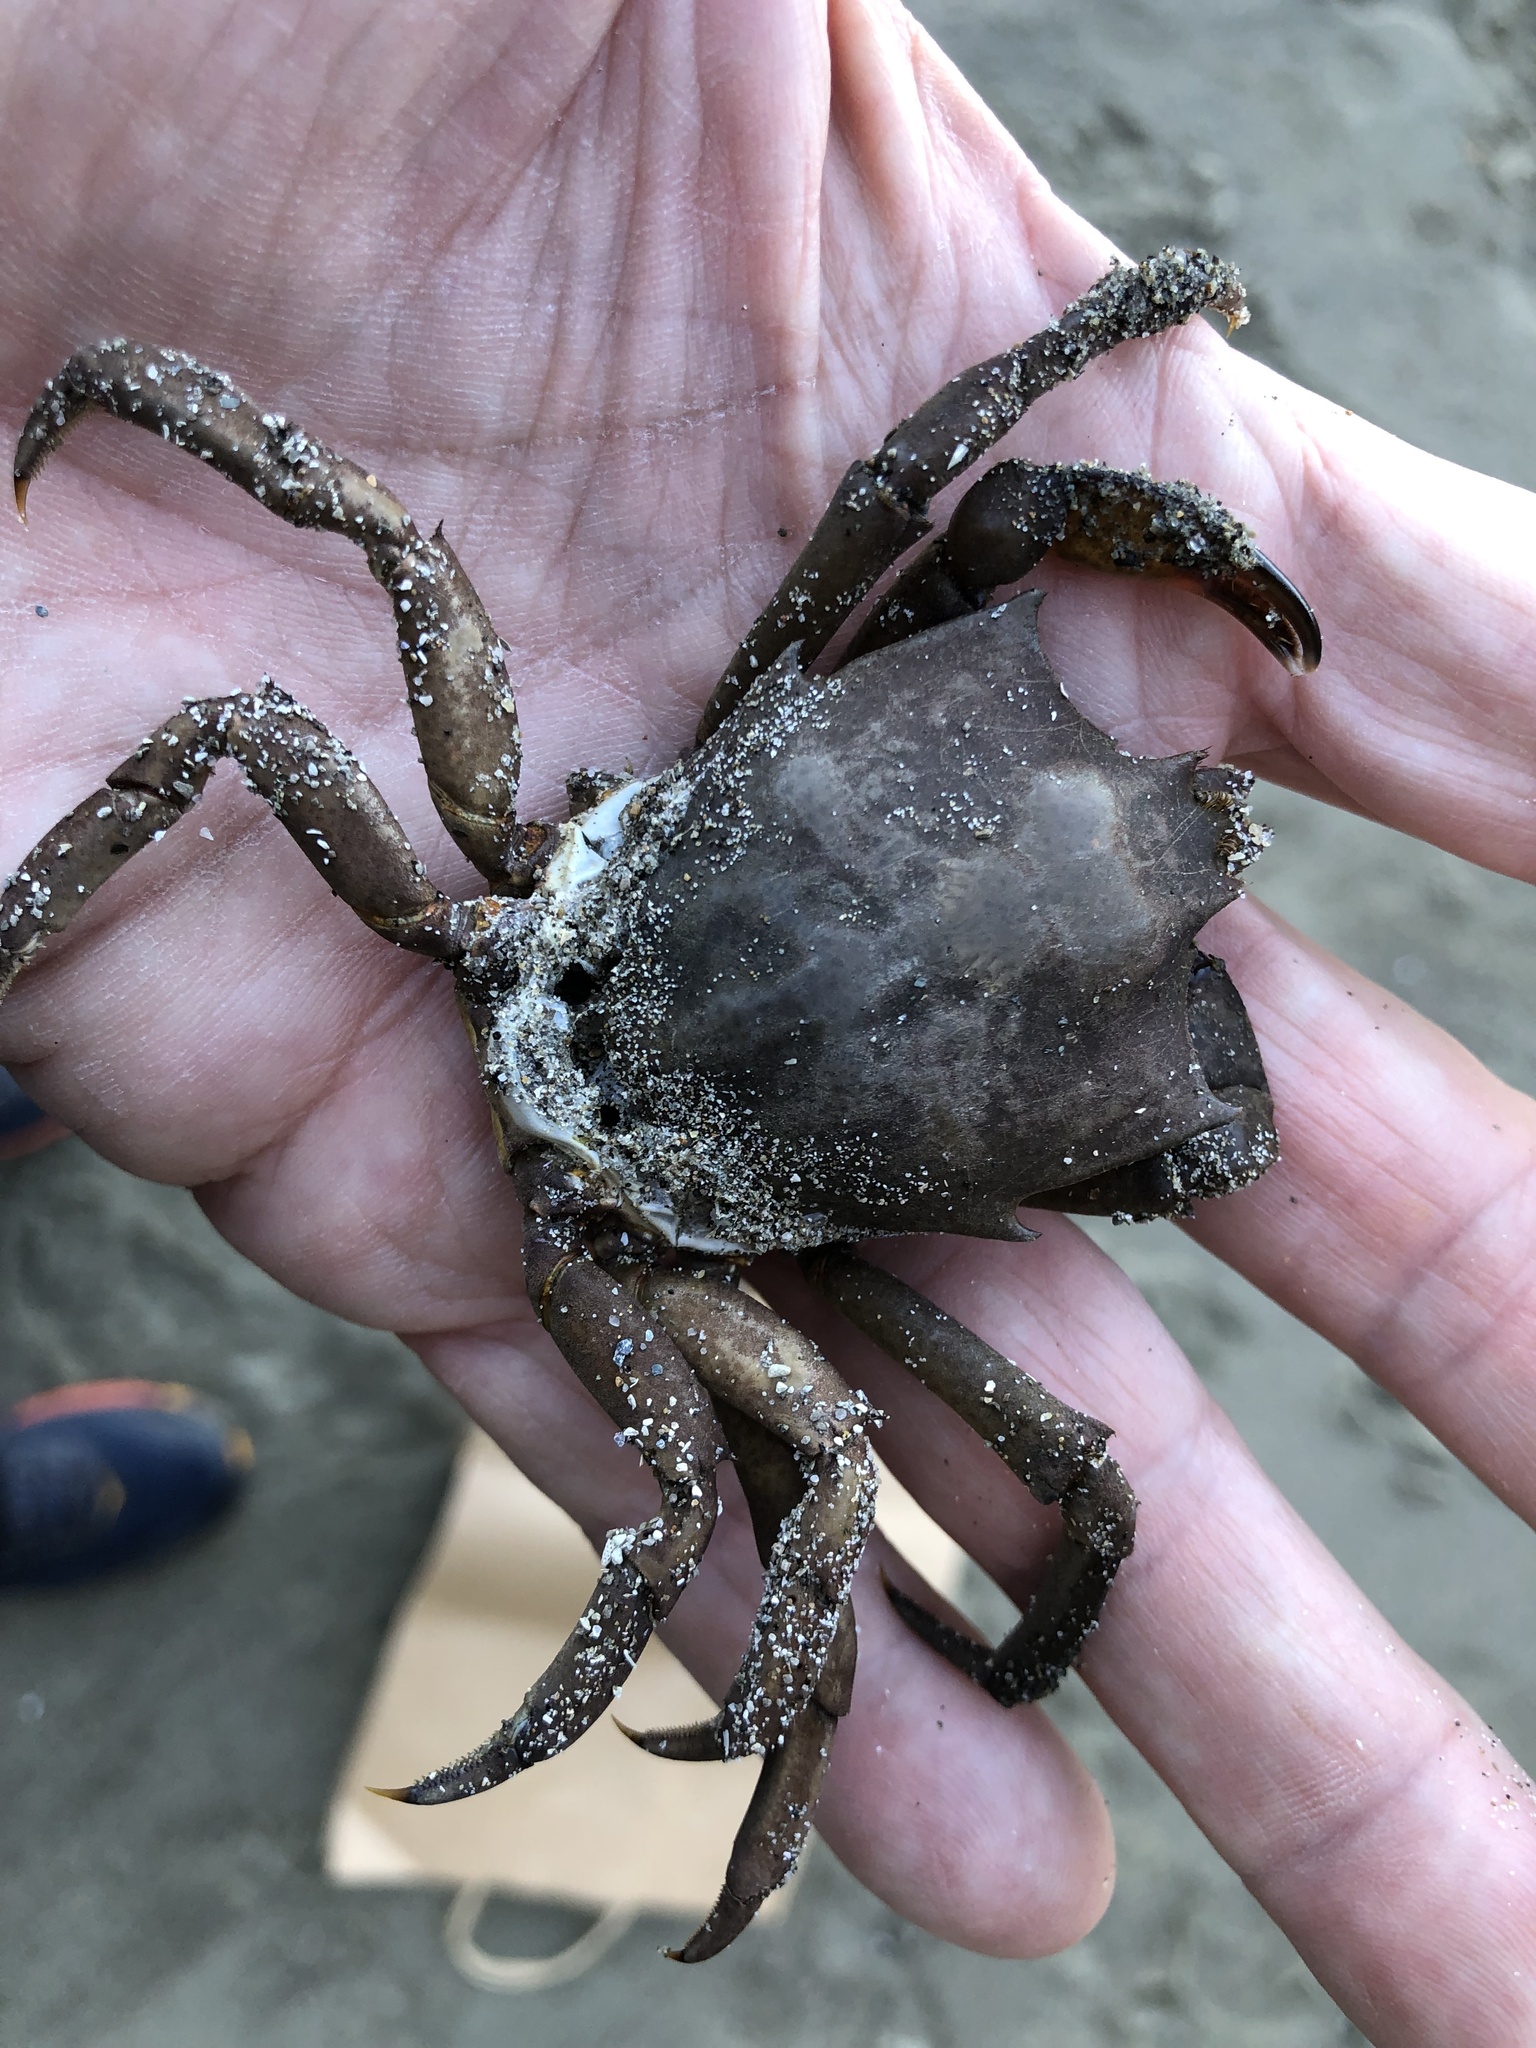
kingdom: Animalia
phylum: Arthropoda
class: Malacostraca
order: Decapoda
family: Epialtidae
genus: Pugettia
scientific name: Pugettia producta
